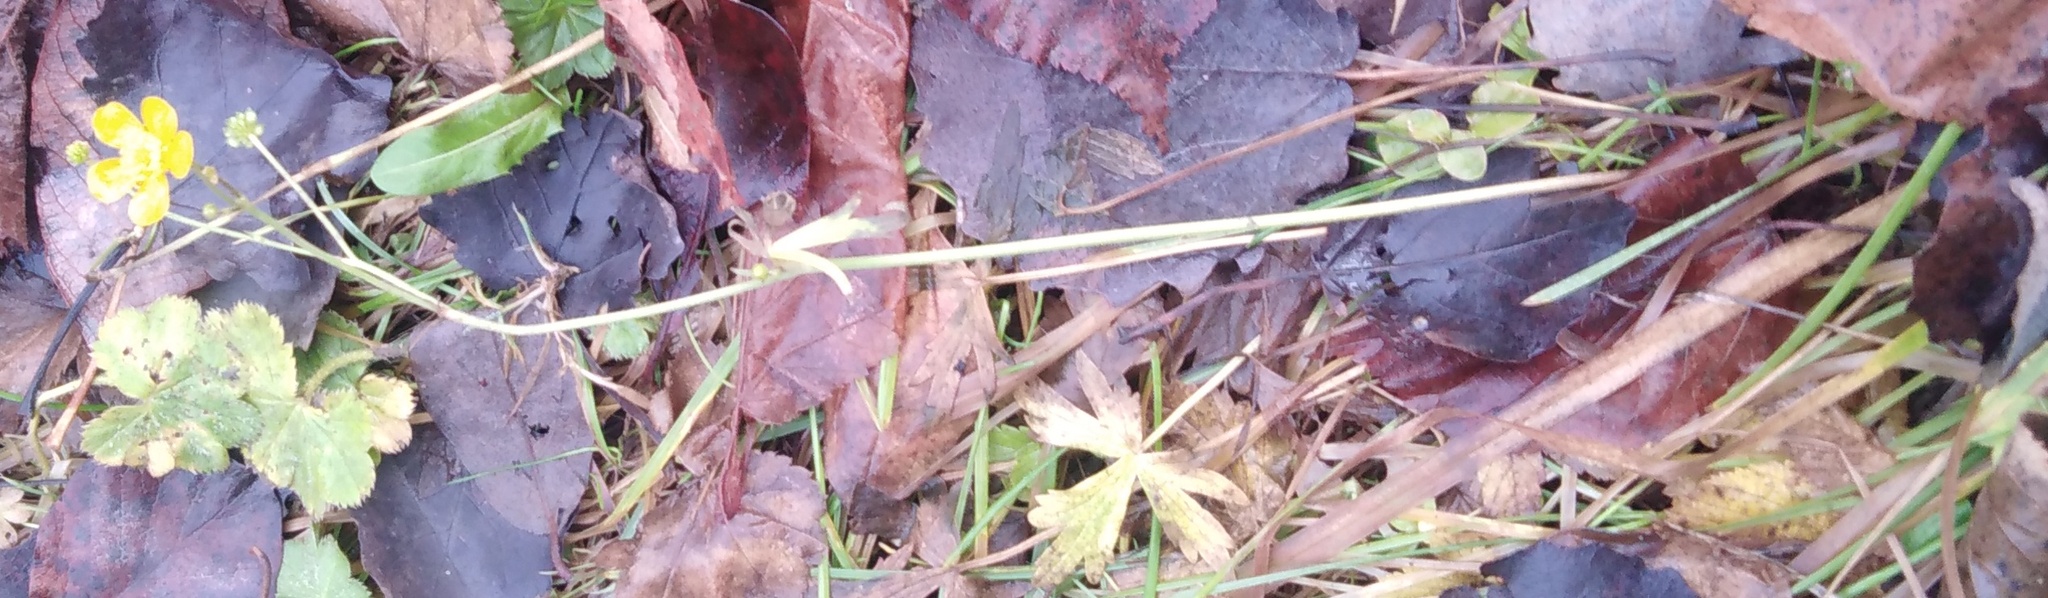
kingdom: Plantae
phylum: Tracheophyta
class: Magnoliopsida
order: Ranunculales
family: Ranunculaceae
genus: Ranunculus
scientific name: Ranunculus acris
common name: Meadow buttercup
